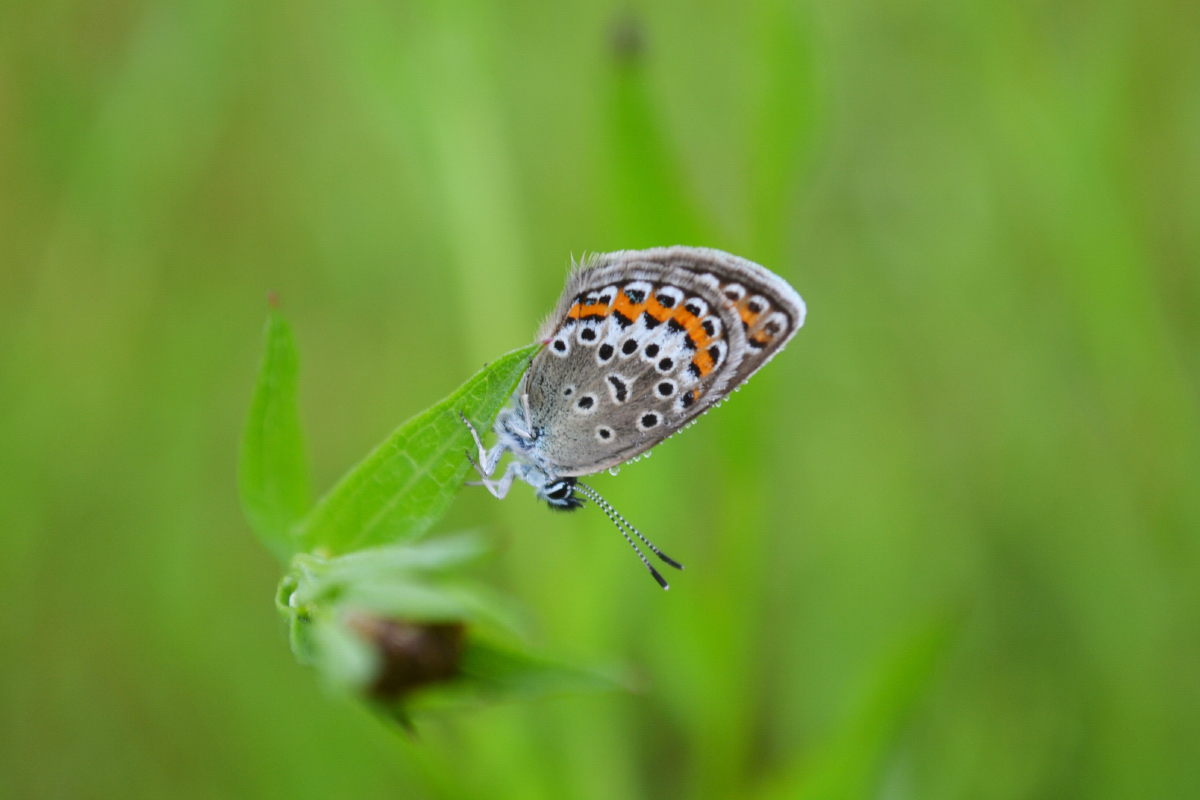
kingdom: Animalia
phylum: Arthropoda
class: Insecta
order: Lepidoptera
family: Lycaenidae
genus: Plebejus
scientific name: Plebejus argus
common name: Silver-studded blue
